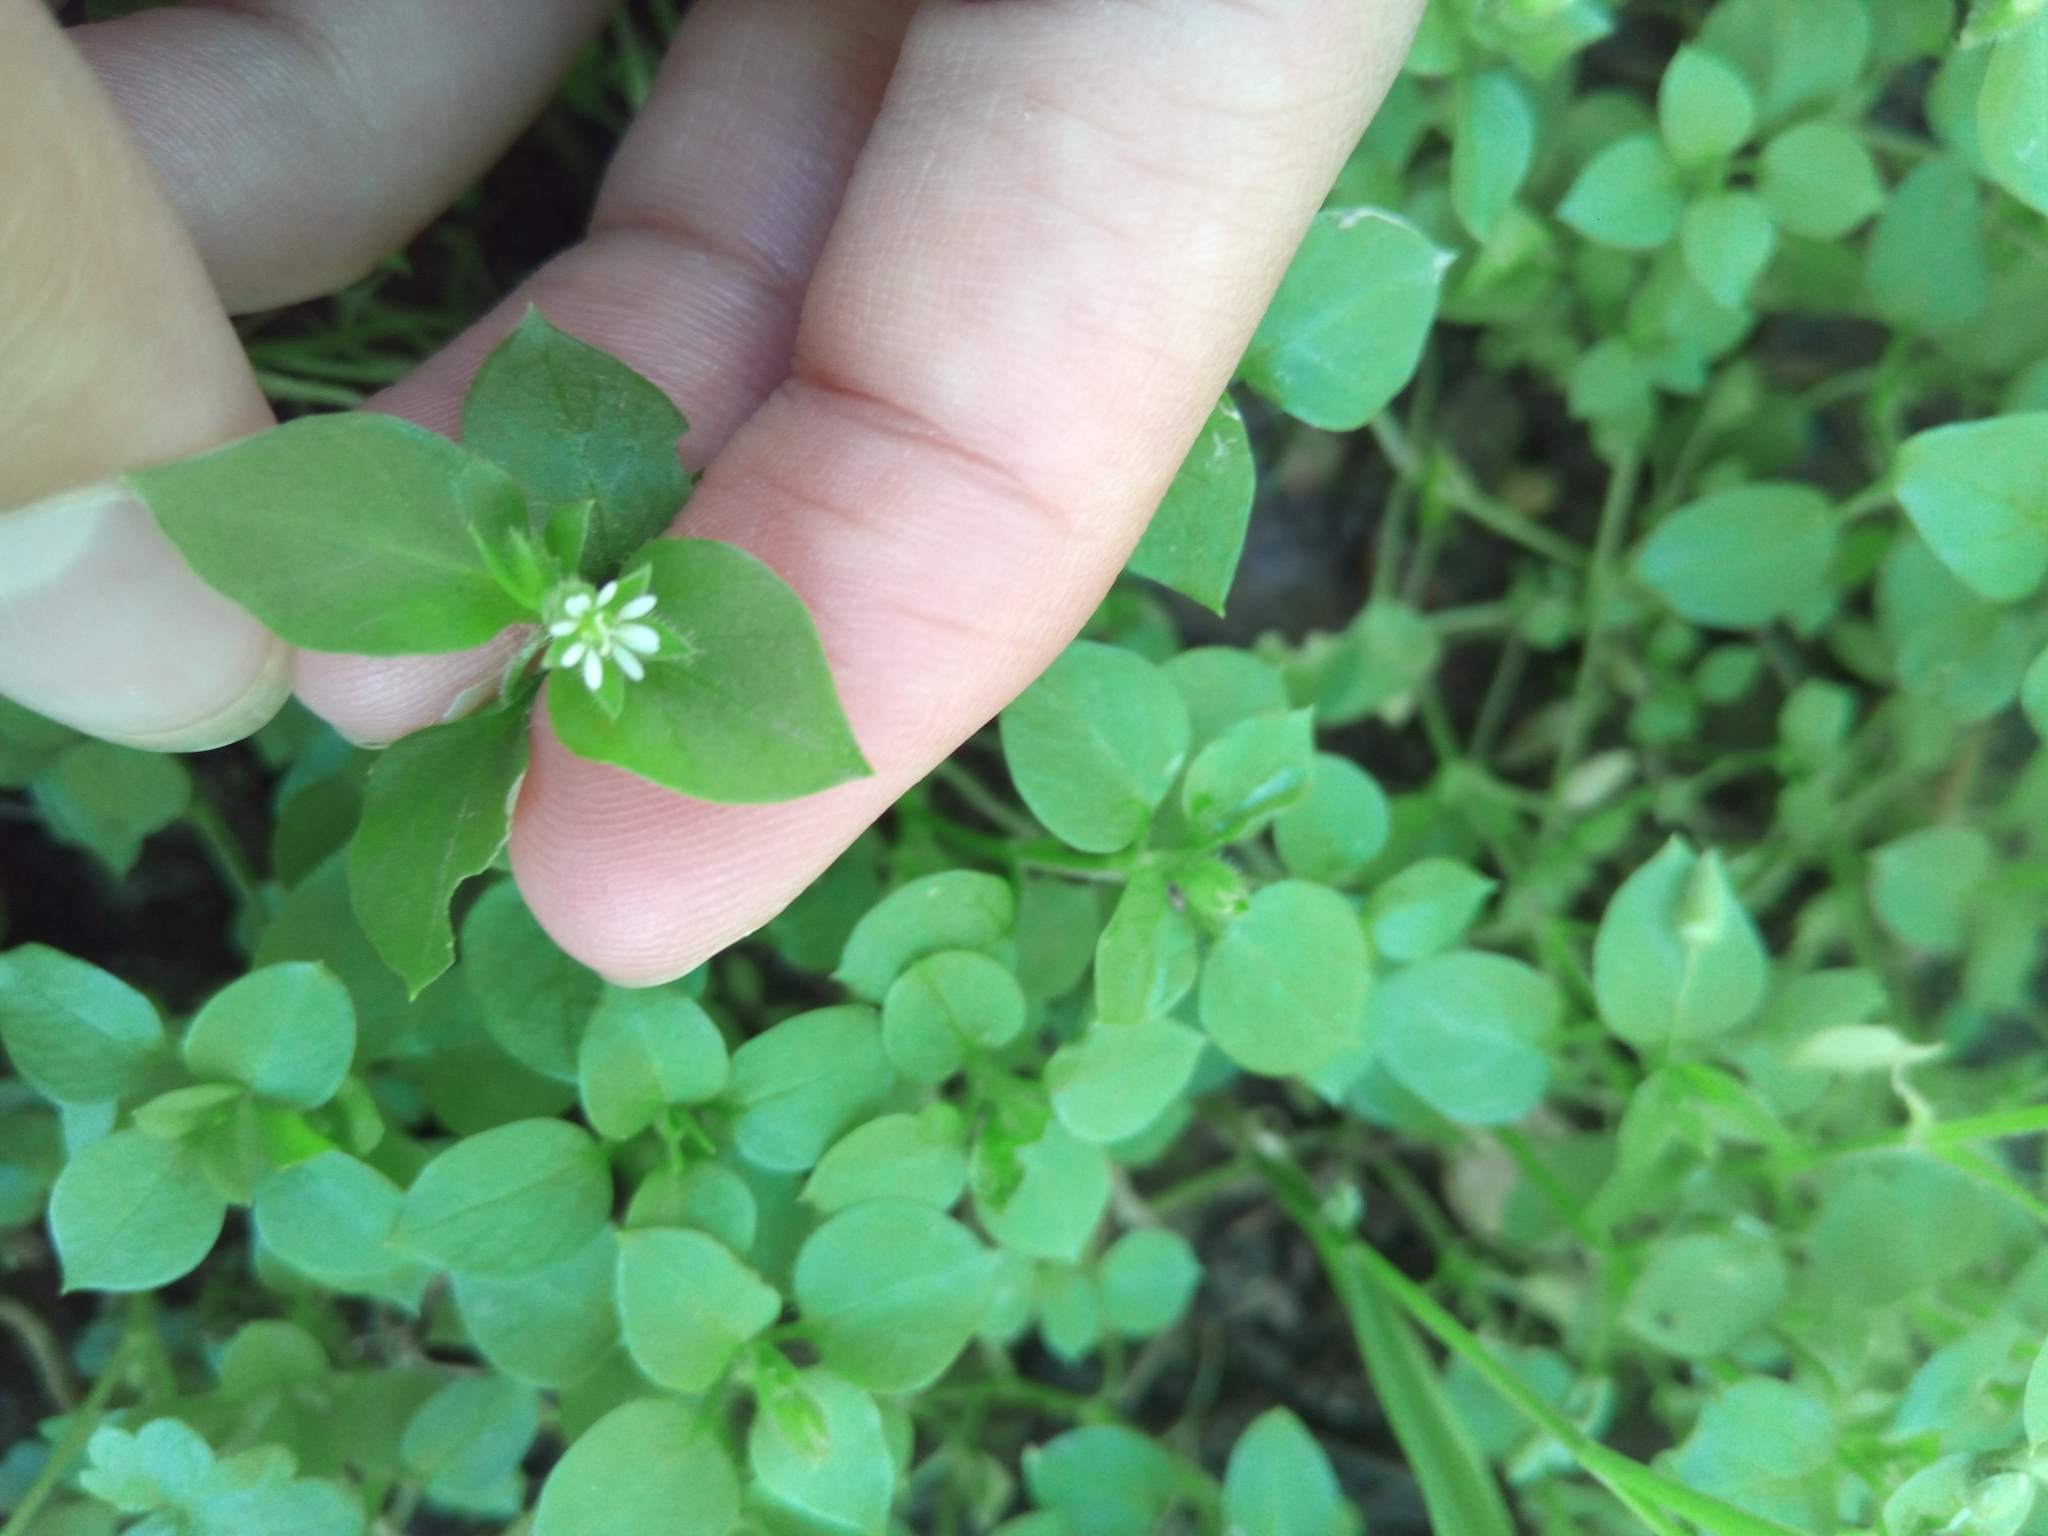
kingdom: Plantae
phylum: Tracheophyta
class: Magnoliopsida
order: Caryophyllales
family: Caryophyllaceae
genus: Stellaria
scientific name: Stellaria media
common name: Common chickweed
